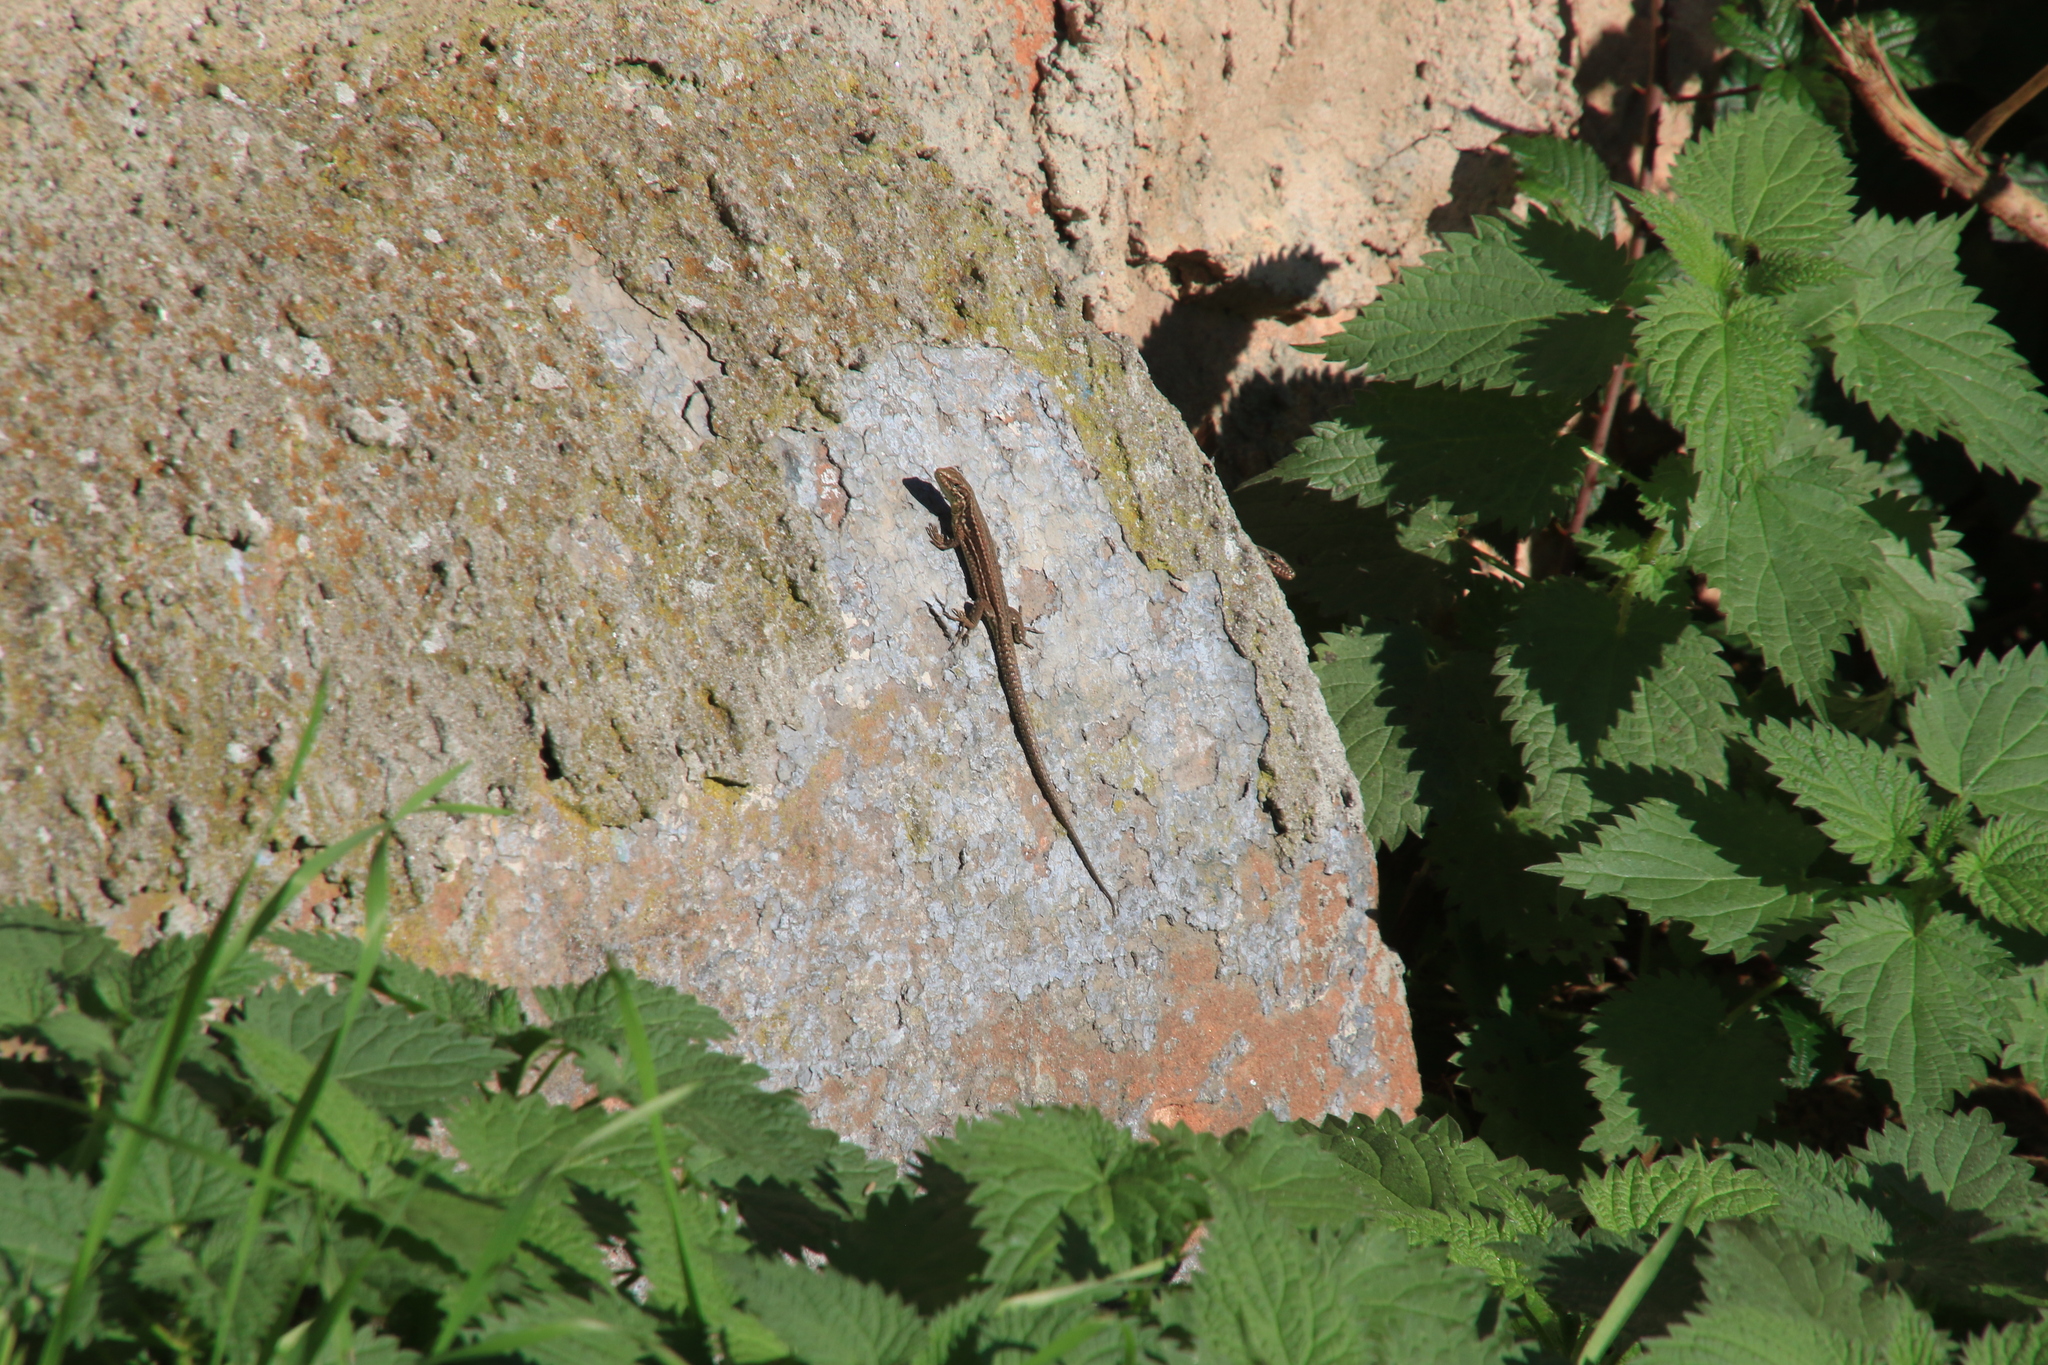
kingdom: Animalia
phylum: Chordata
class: Squamata
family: Lacertidae
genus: Podarcis
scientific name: Podarcis muralis
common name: Common wall lizard
